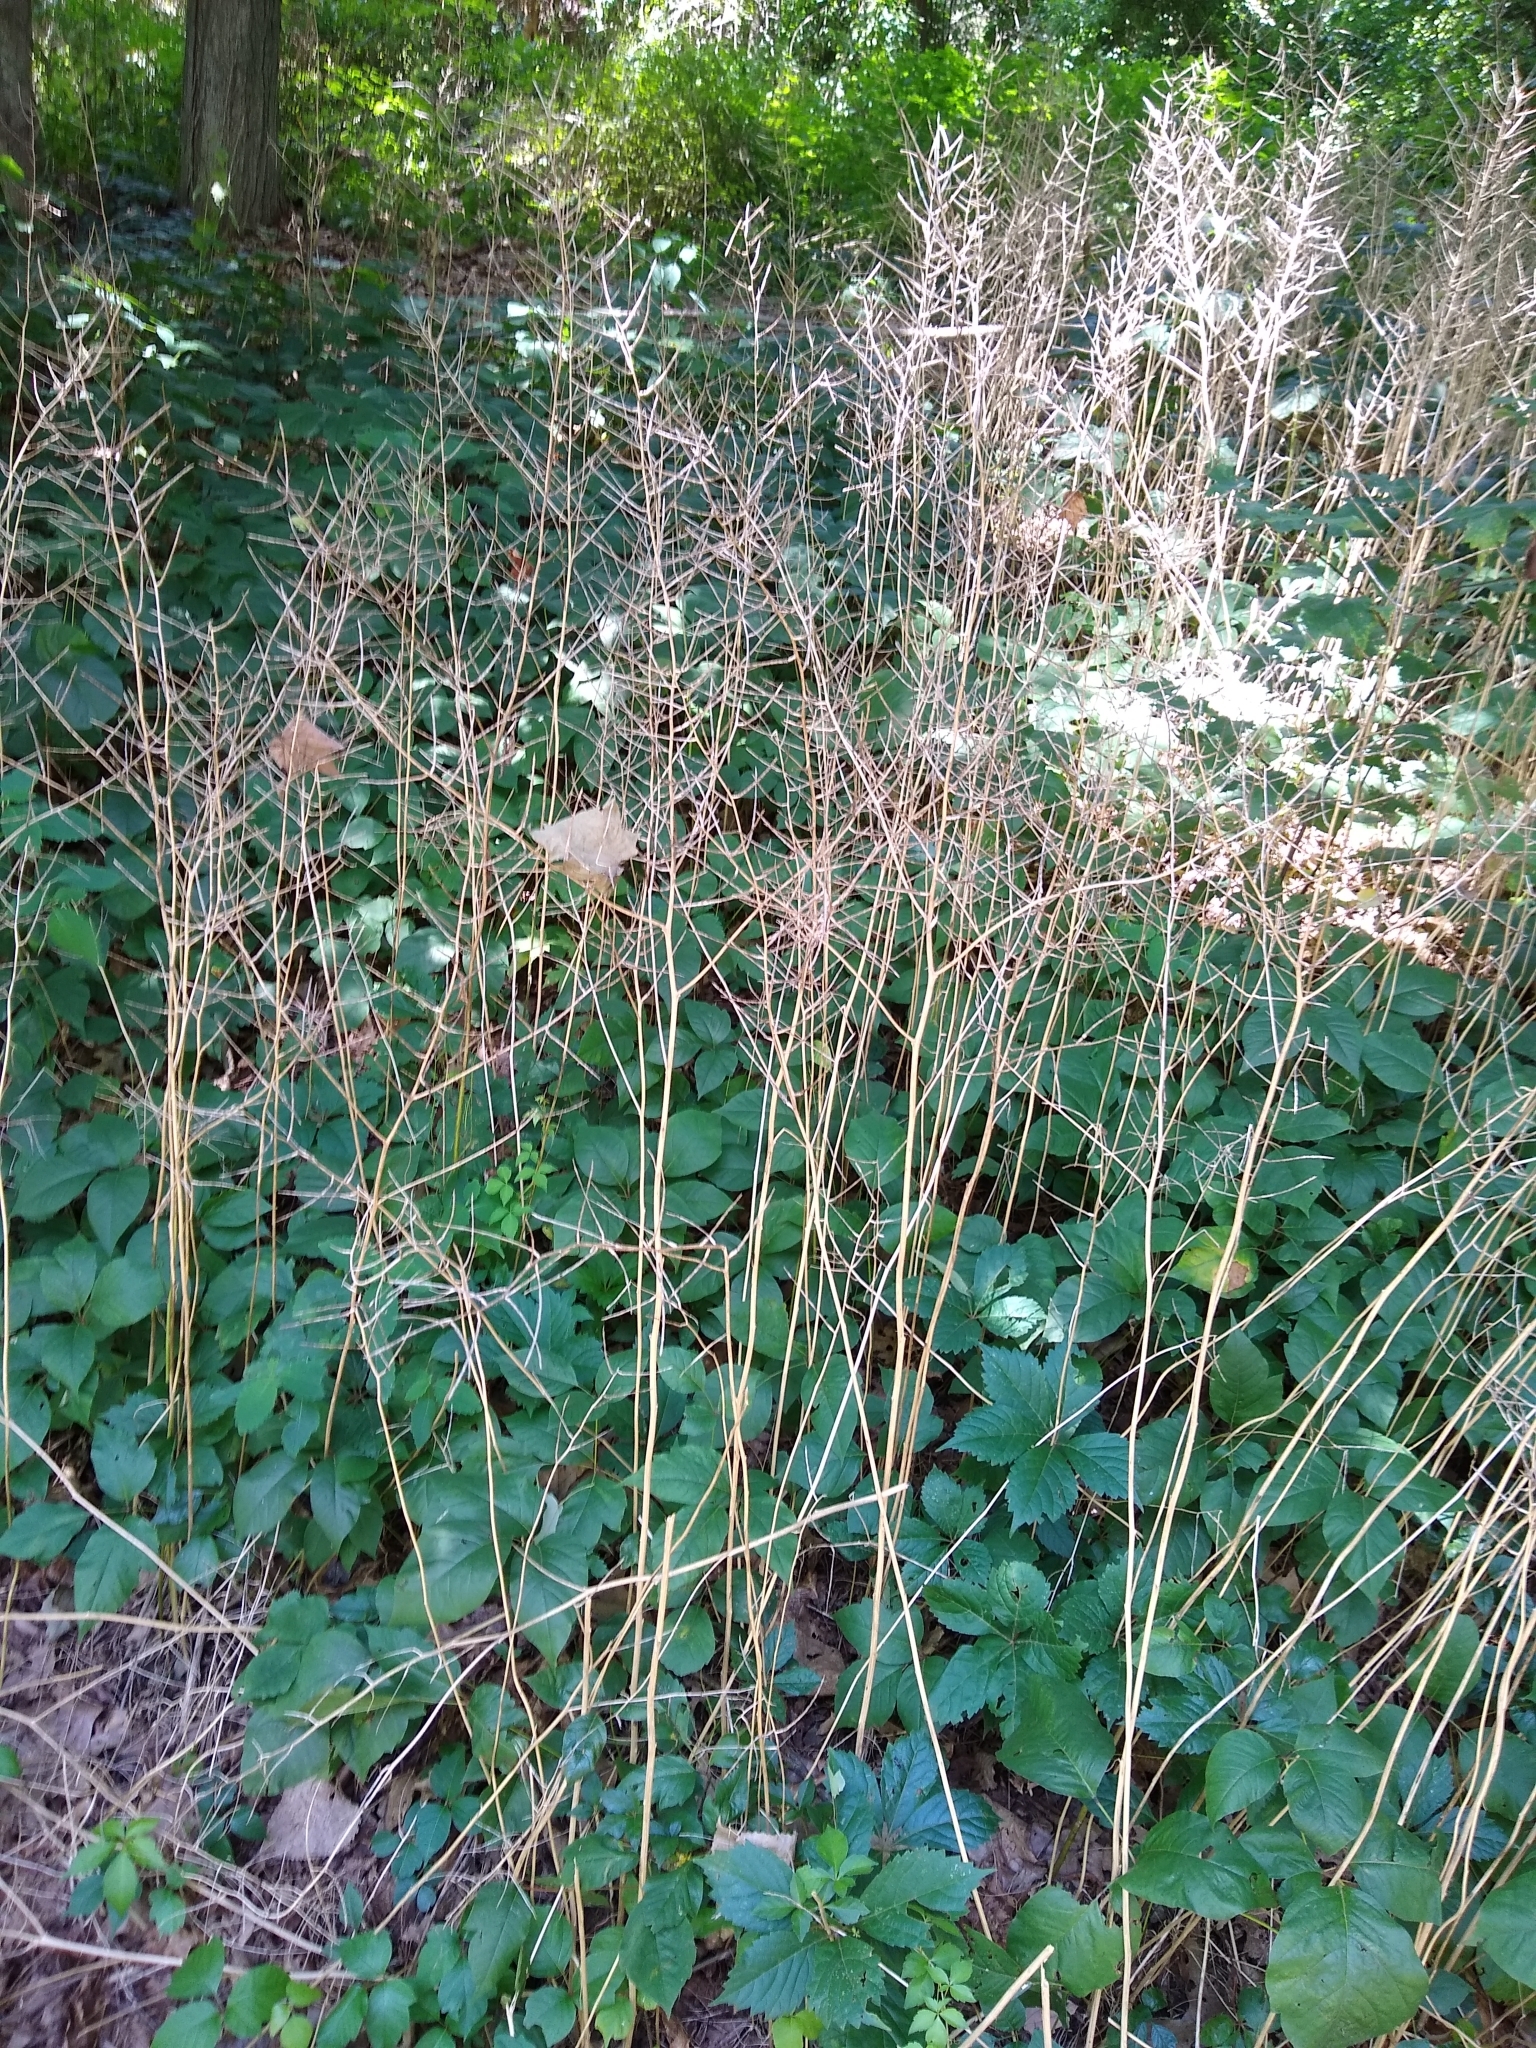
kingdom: Plantae
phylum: Tracheophyta
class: Magnoliopsida
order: Brassicales
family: Brassicaceae
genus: Alliaria
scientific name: Alliaria petiolata
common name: Garlic mustard
